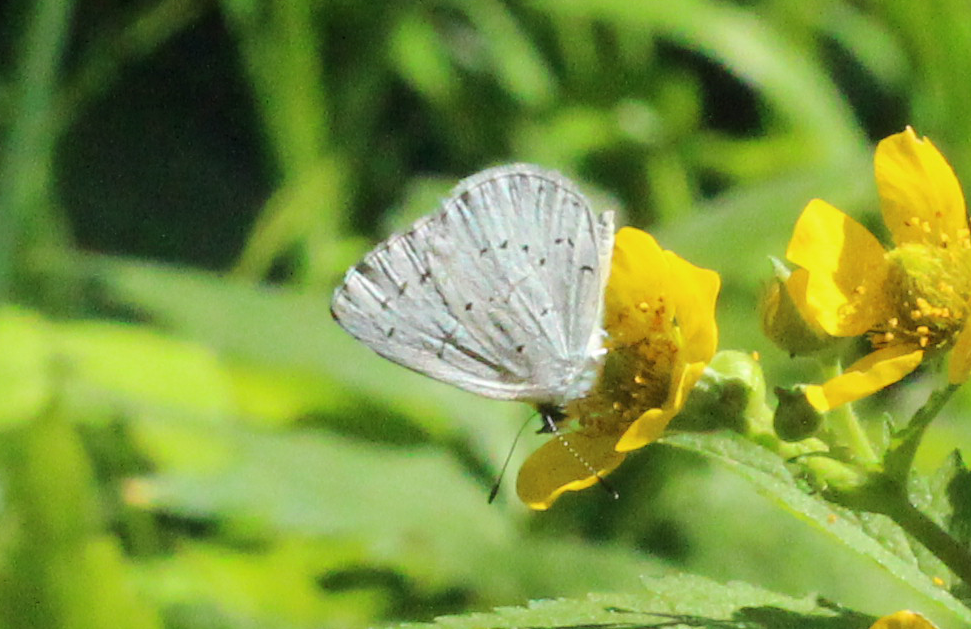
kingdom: Animalia
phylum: Arthropoda
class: Insecta
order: Lepidoptera
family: Lycaenidae
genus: Celastrina
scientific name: Celastrina ladon
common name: Spring azure
